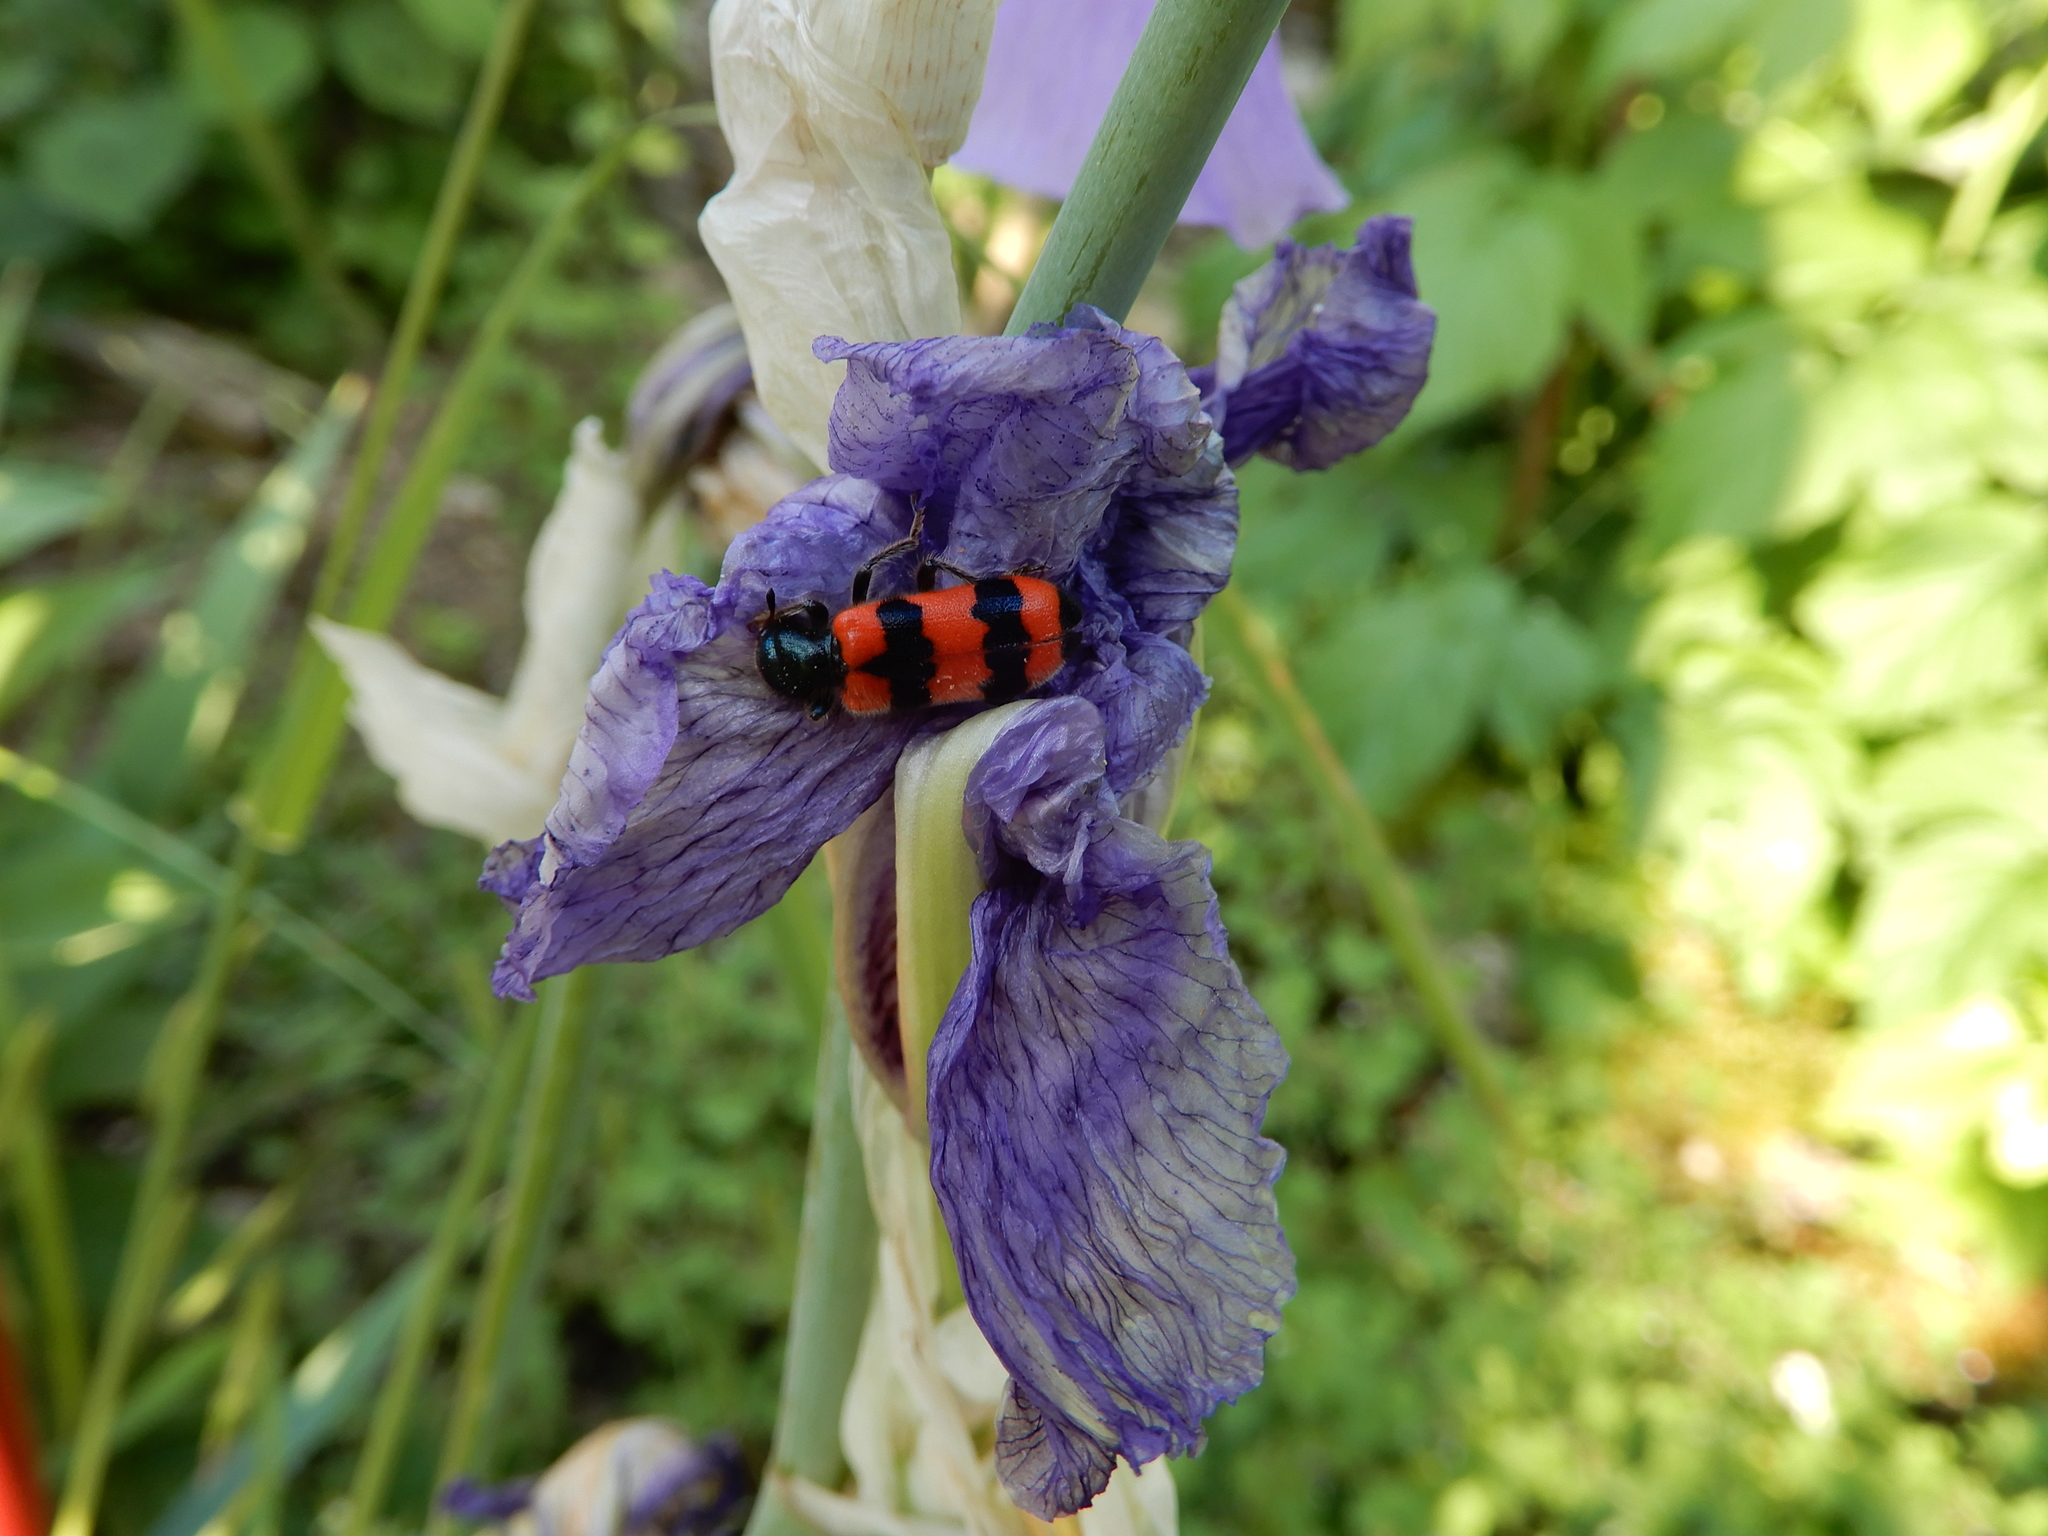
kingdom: Animalia
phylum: Arthropoda
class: Insecta
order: Coleoptera
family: Cleridae
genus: Trichodes
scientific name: Trichodes apiarius
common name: Bee-eating beetle
